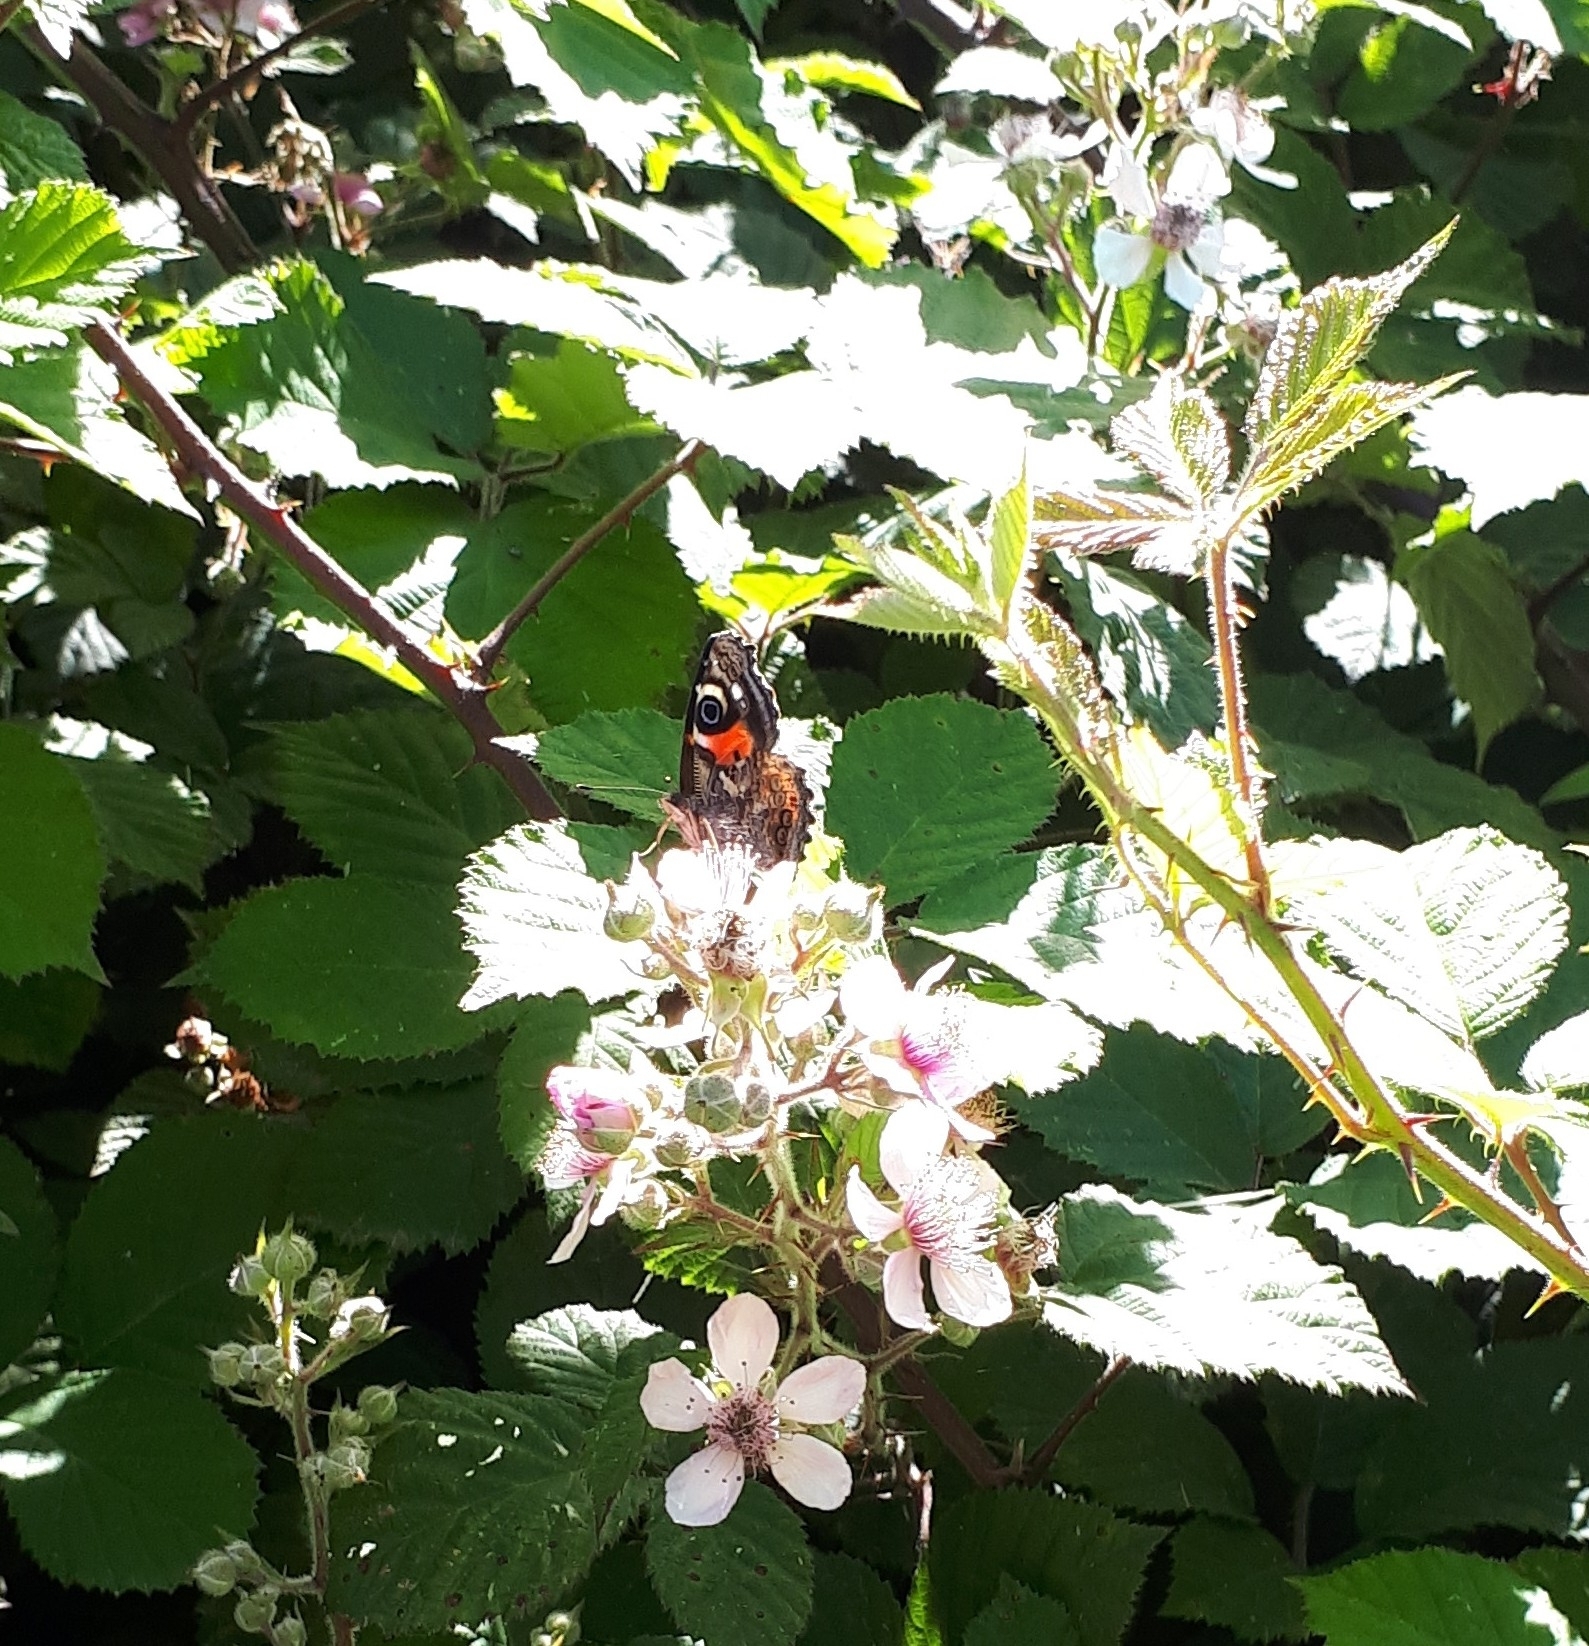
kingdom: Animalia
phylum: Arthropoda
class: Insecta
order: Lepidoptera
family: Nymphalidae
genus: Vanessa
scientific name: Vanessa gonerilla
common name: New zealand red admiral
